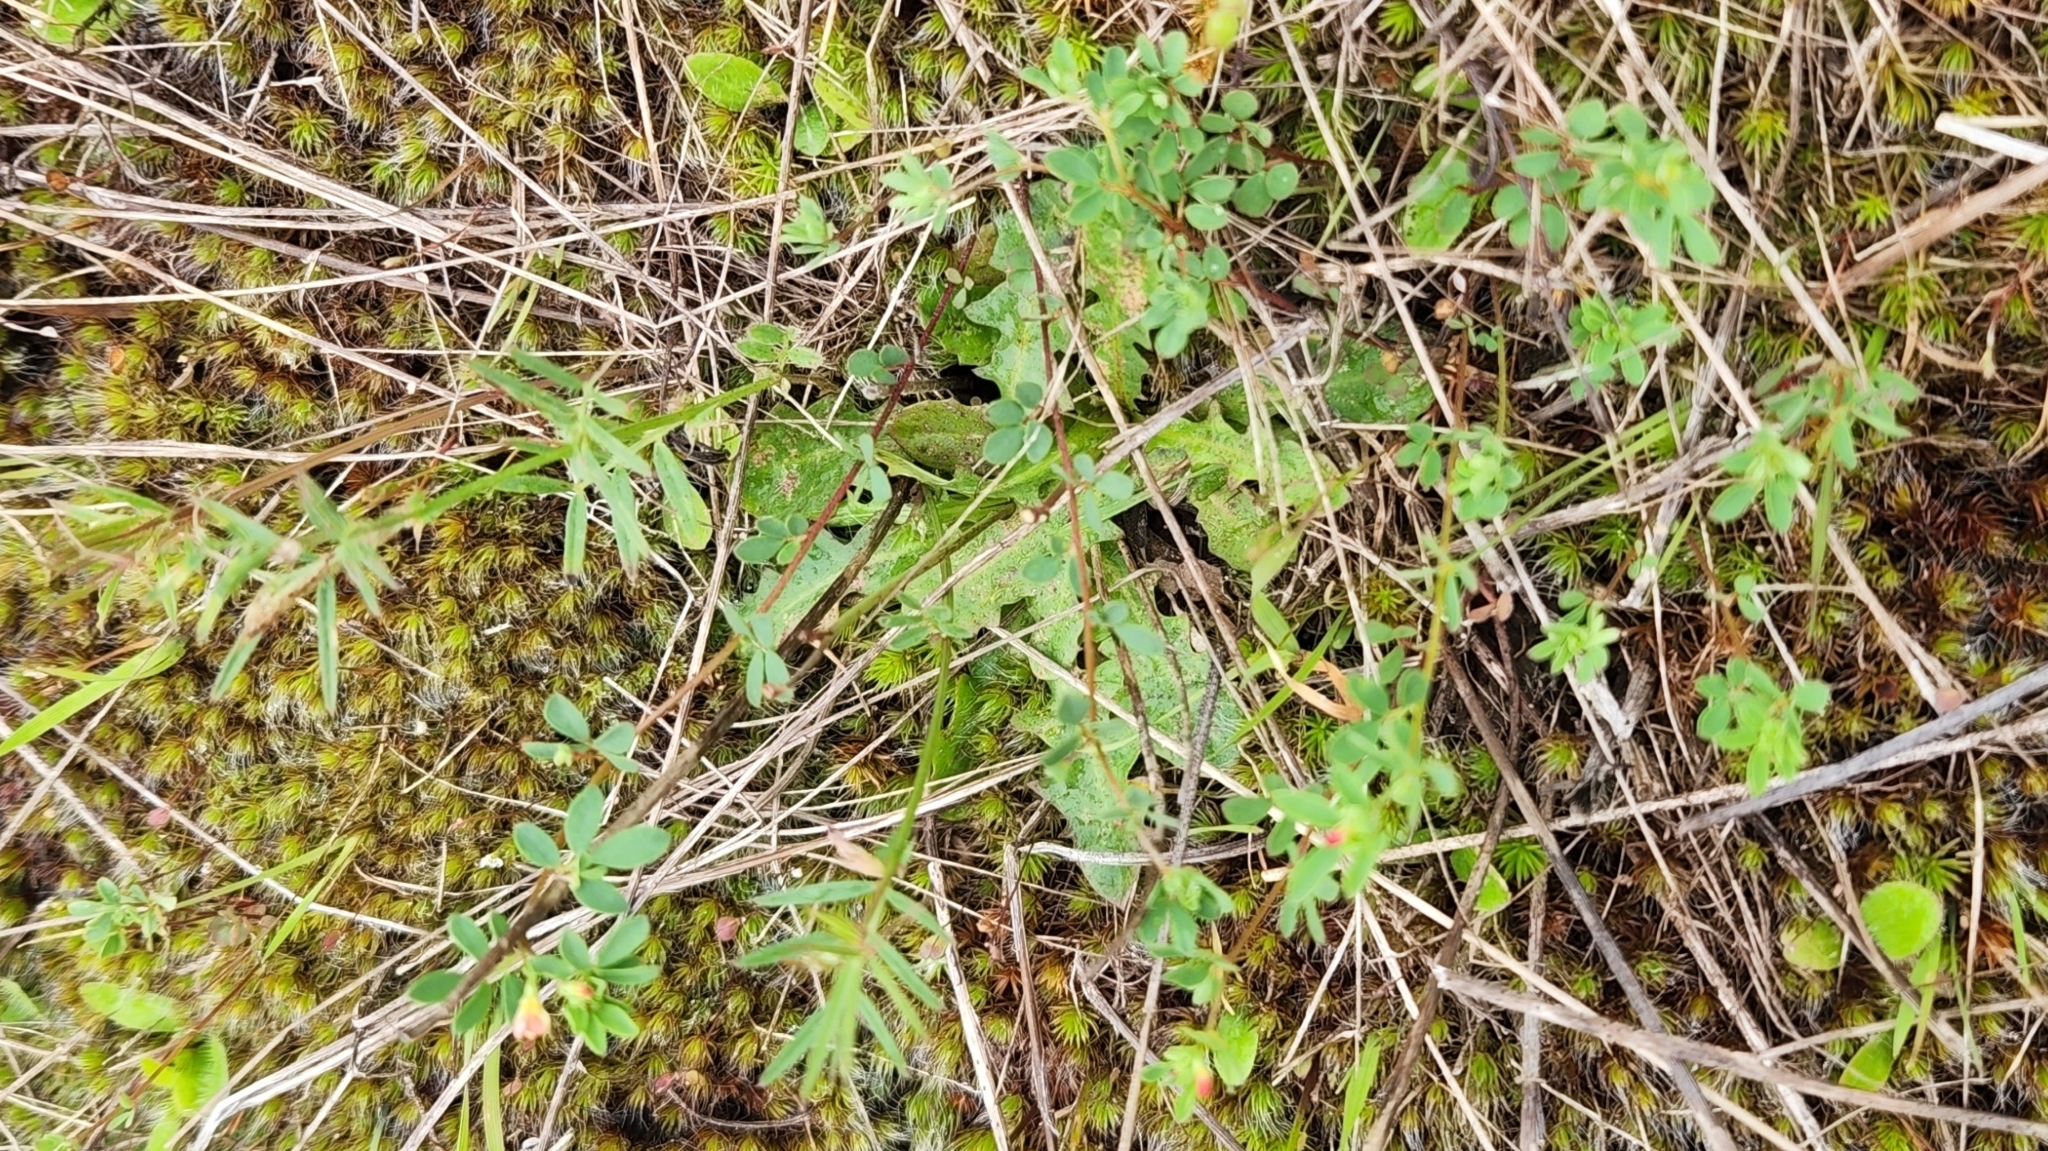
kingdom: Plantae
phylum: Tracheophyta
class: Magnoliopsida
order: Fabales
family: Fabaceae
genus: Acmispon
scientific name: Acmispon parviflorus
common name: Desert deer-vetch
